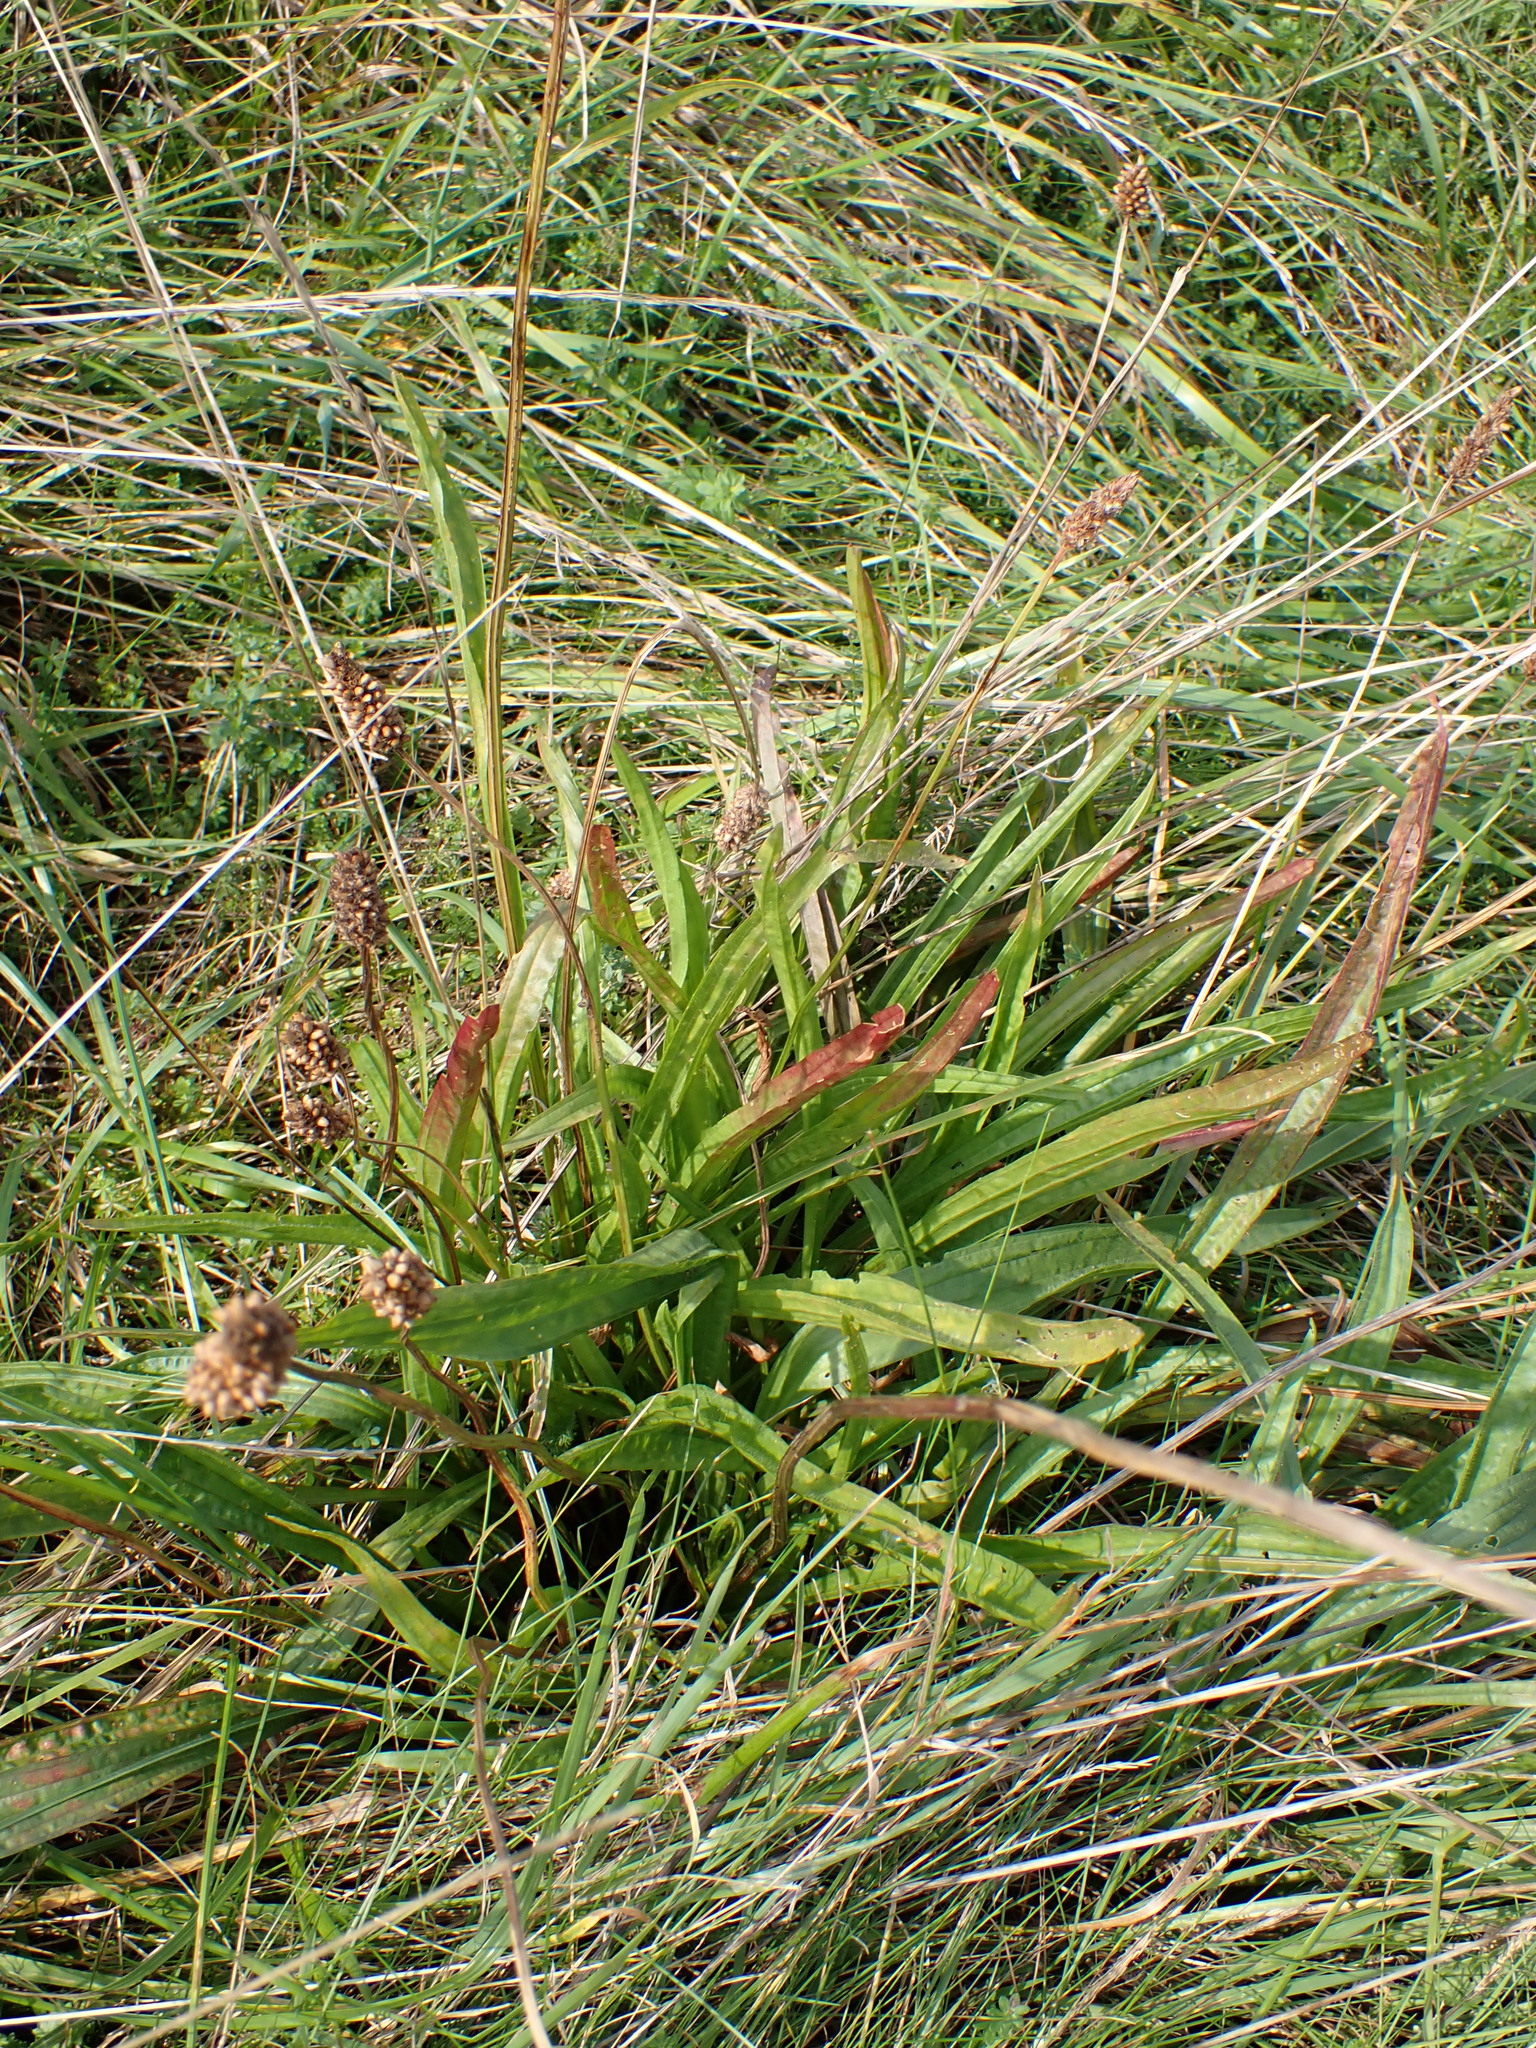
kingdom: Plantae
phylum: Tracheophyta
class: Magnoliopsida
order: Lamiales
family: Plantaginaceae
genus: Plantago
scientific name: Plantago lanceolata
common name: Ribwort plantain
